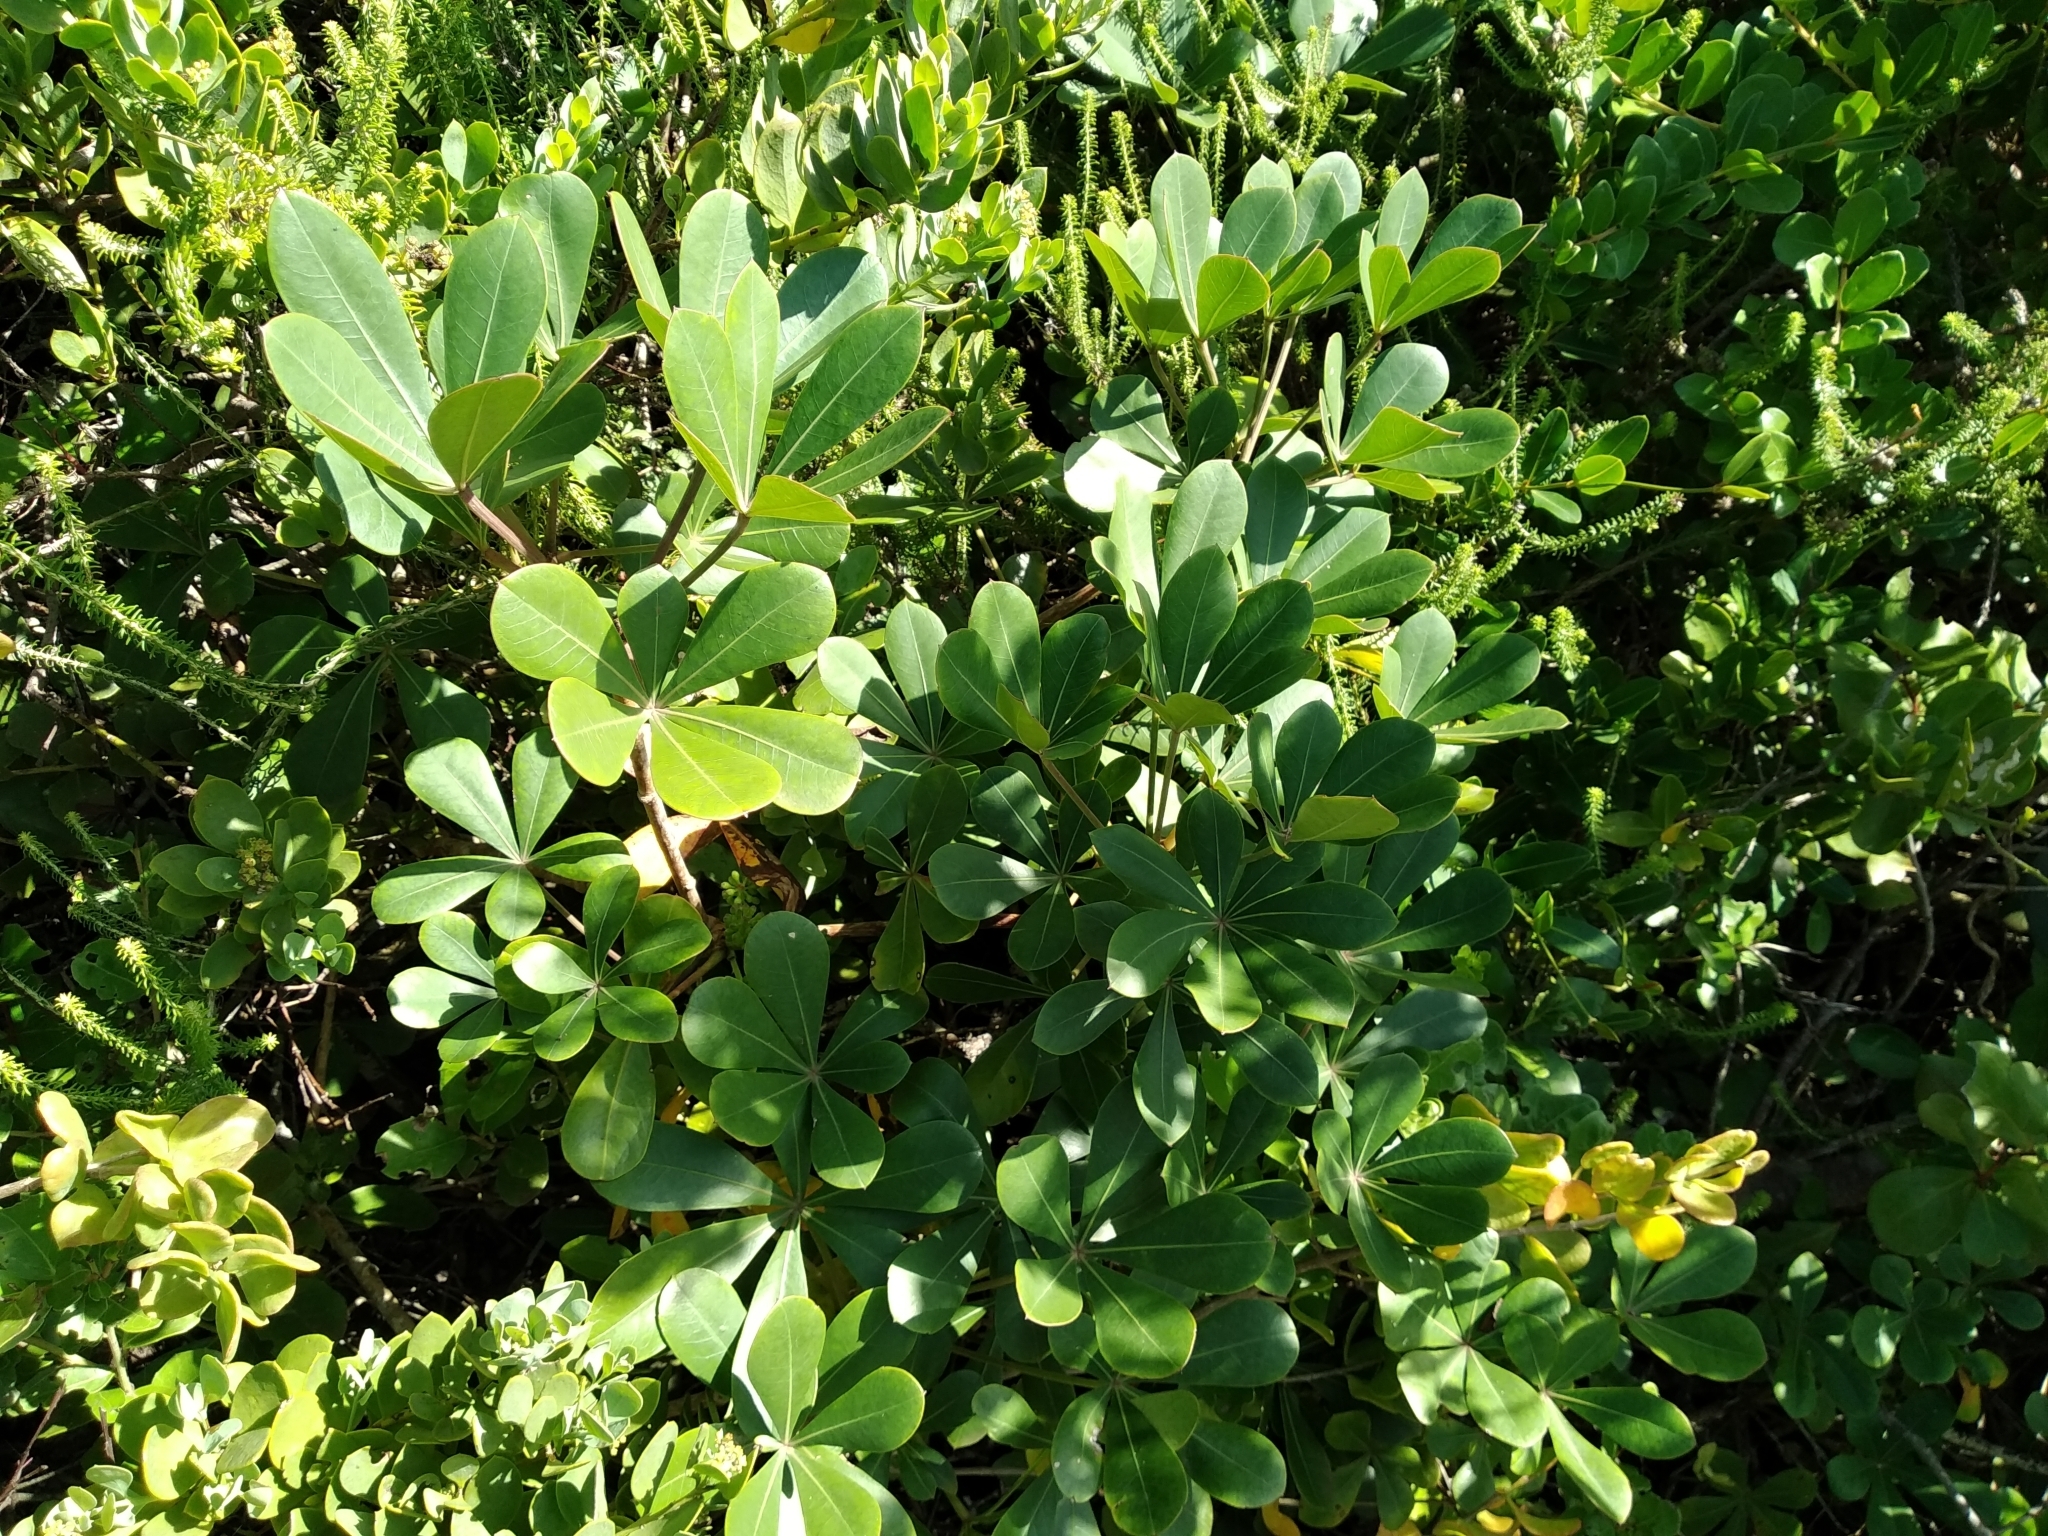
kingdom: Plantae
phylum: Tracheophyta
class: Magnoliopsida
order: Apiales
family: Araliaceae
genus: Cussonia
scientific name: Cussonia thyrsiflora
